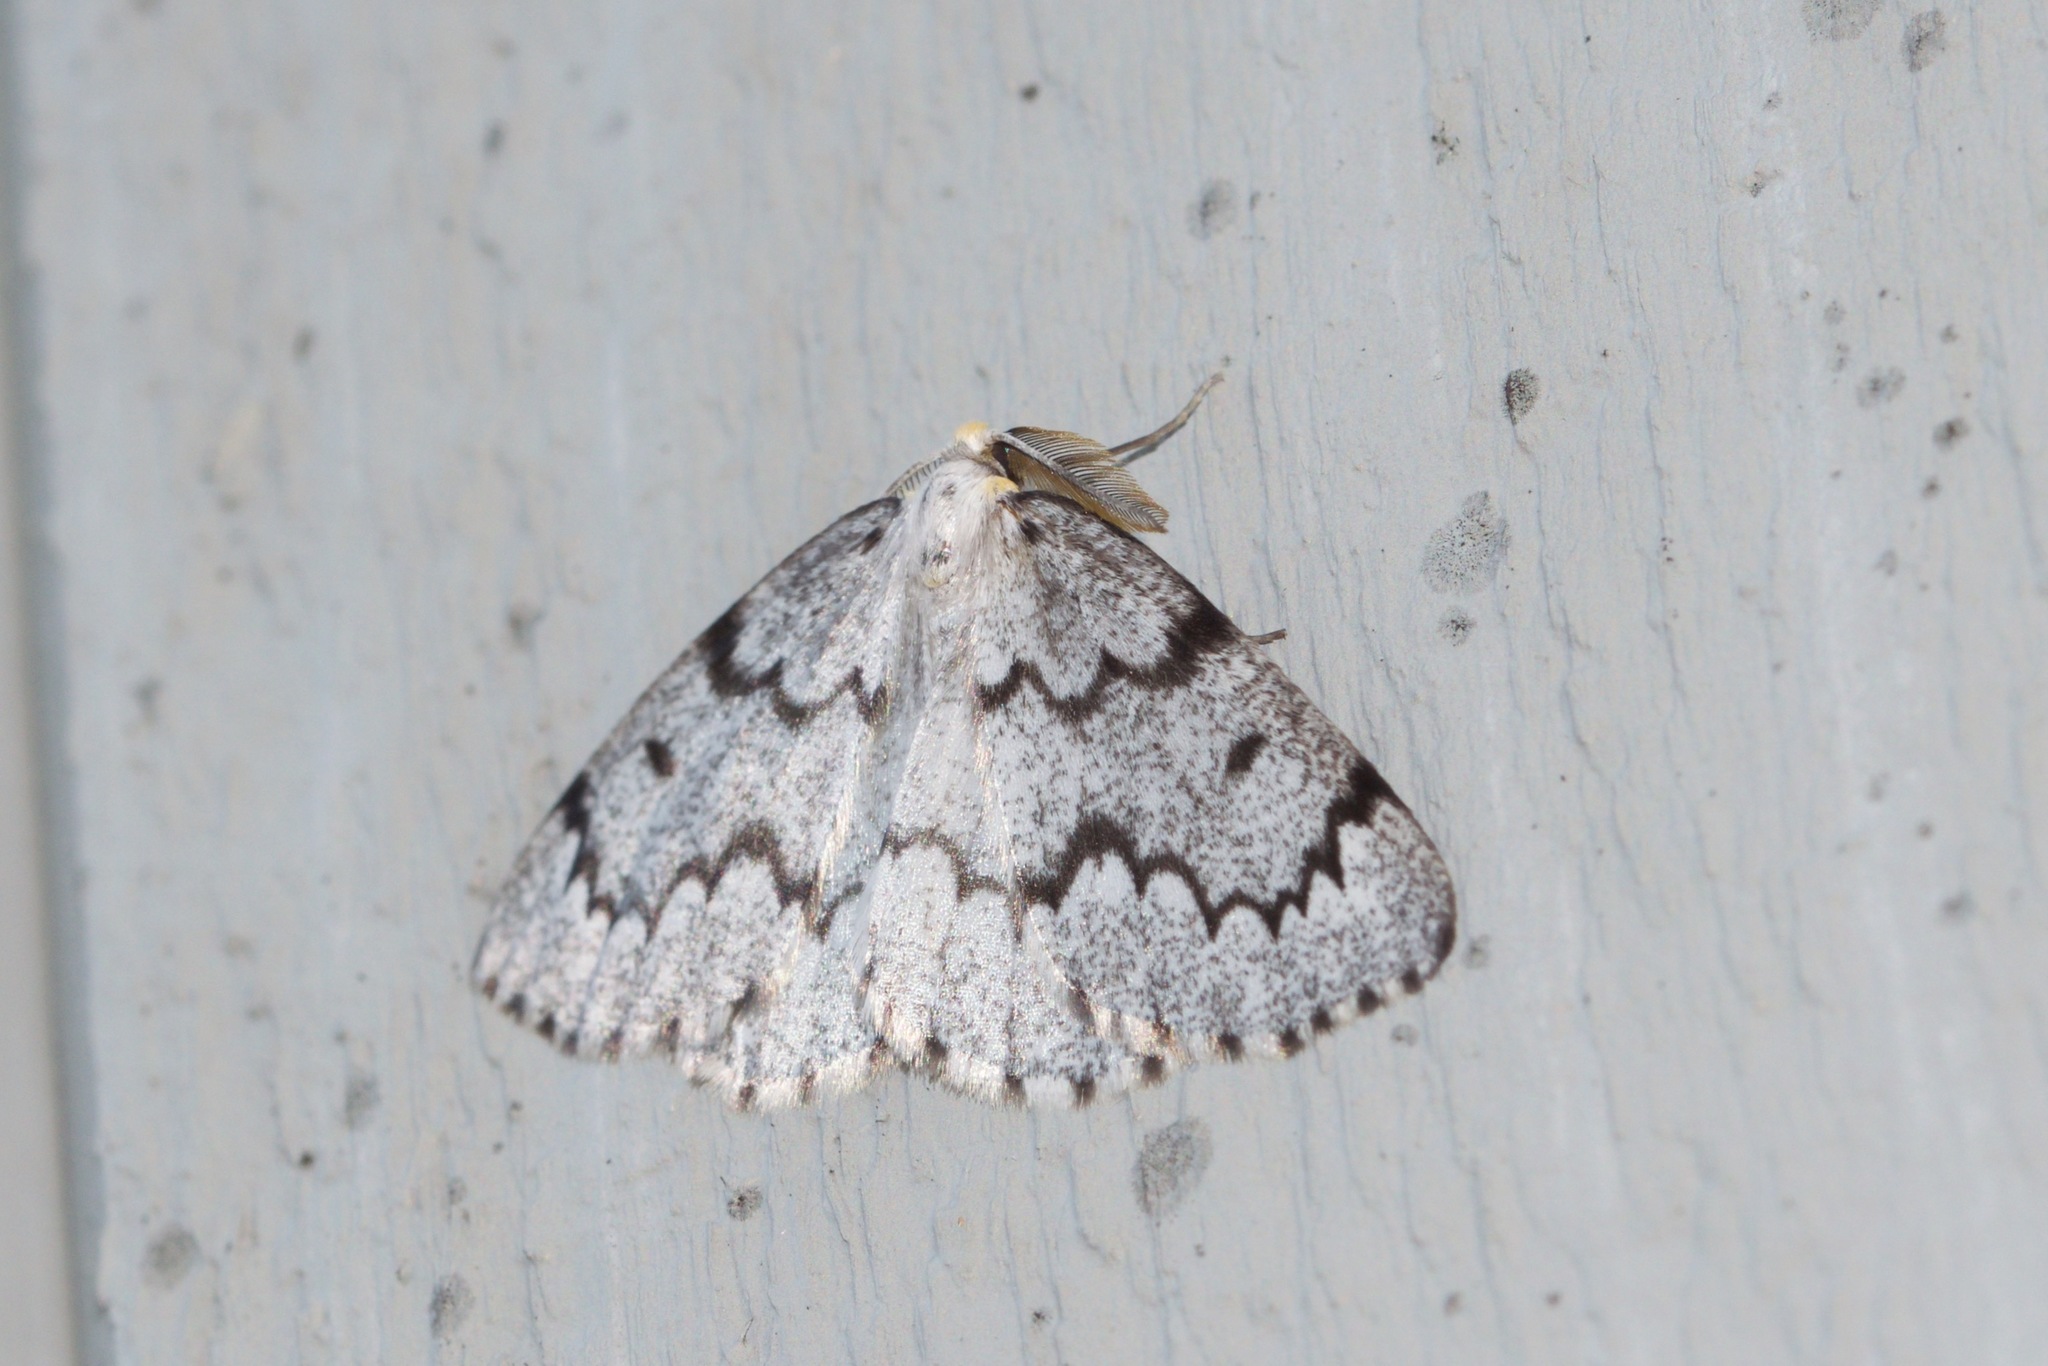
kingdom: Animalia
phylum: Arthropoda
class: Insecta
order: Lepidoptera
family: Geometridae
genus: Nepytia
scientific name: Nepytia canosaria
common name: False hemlock looper
